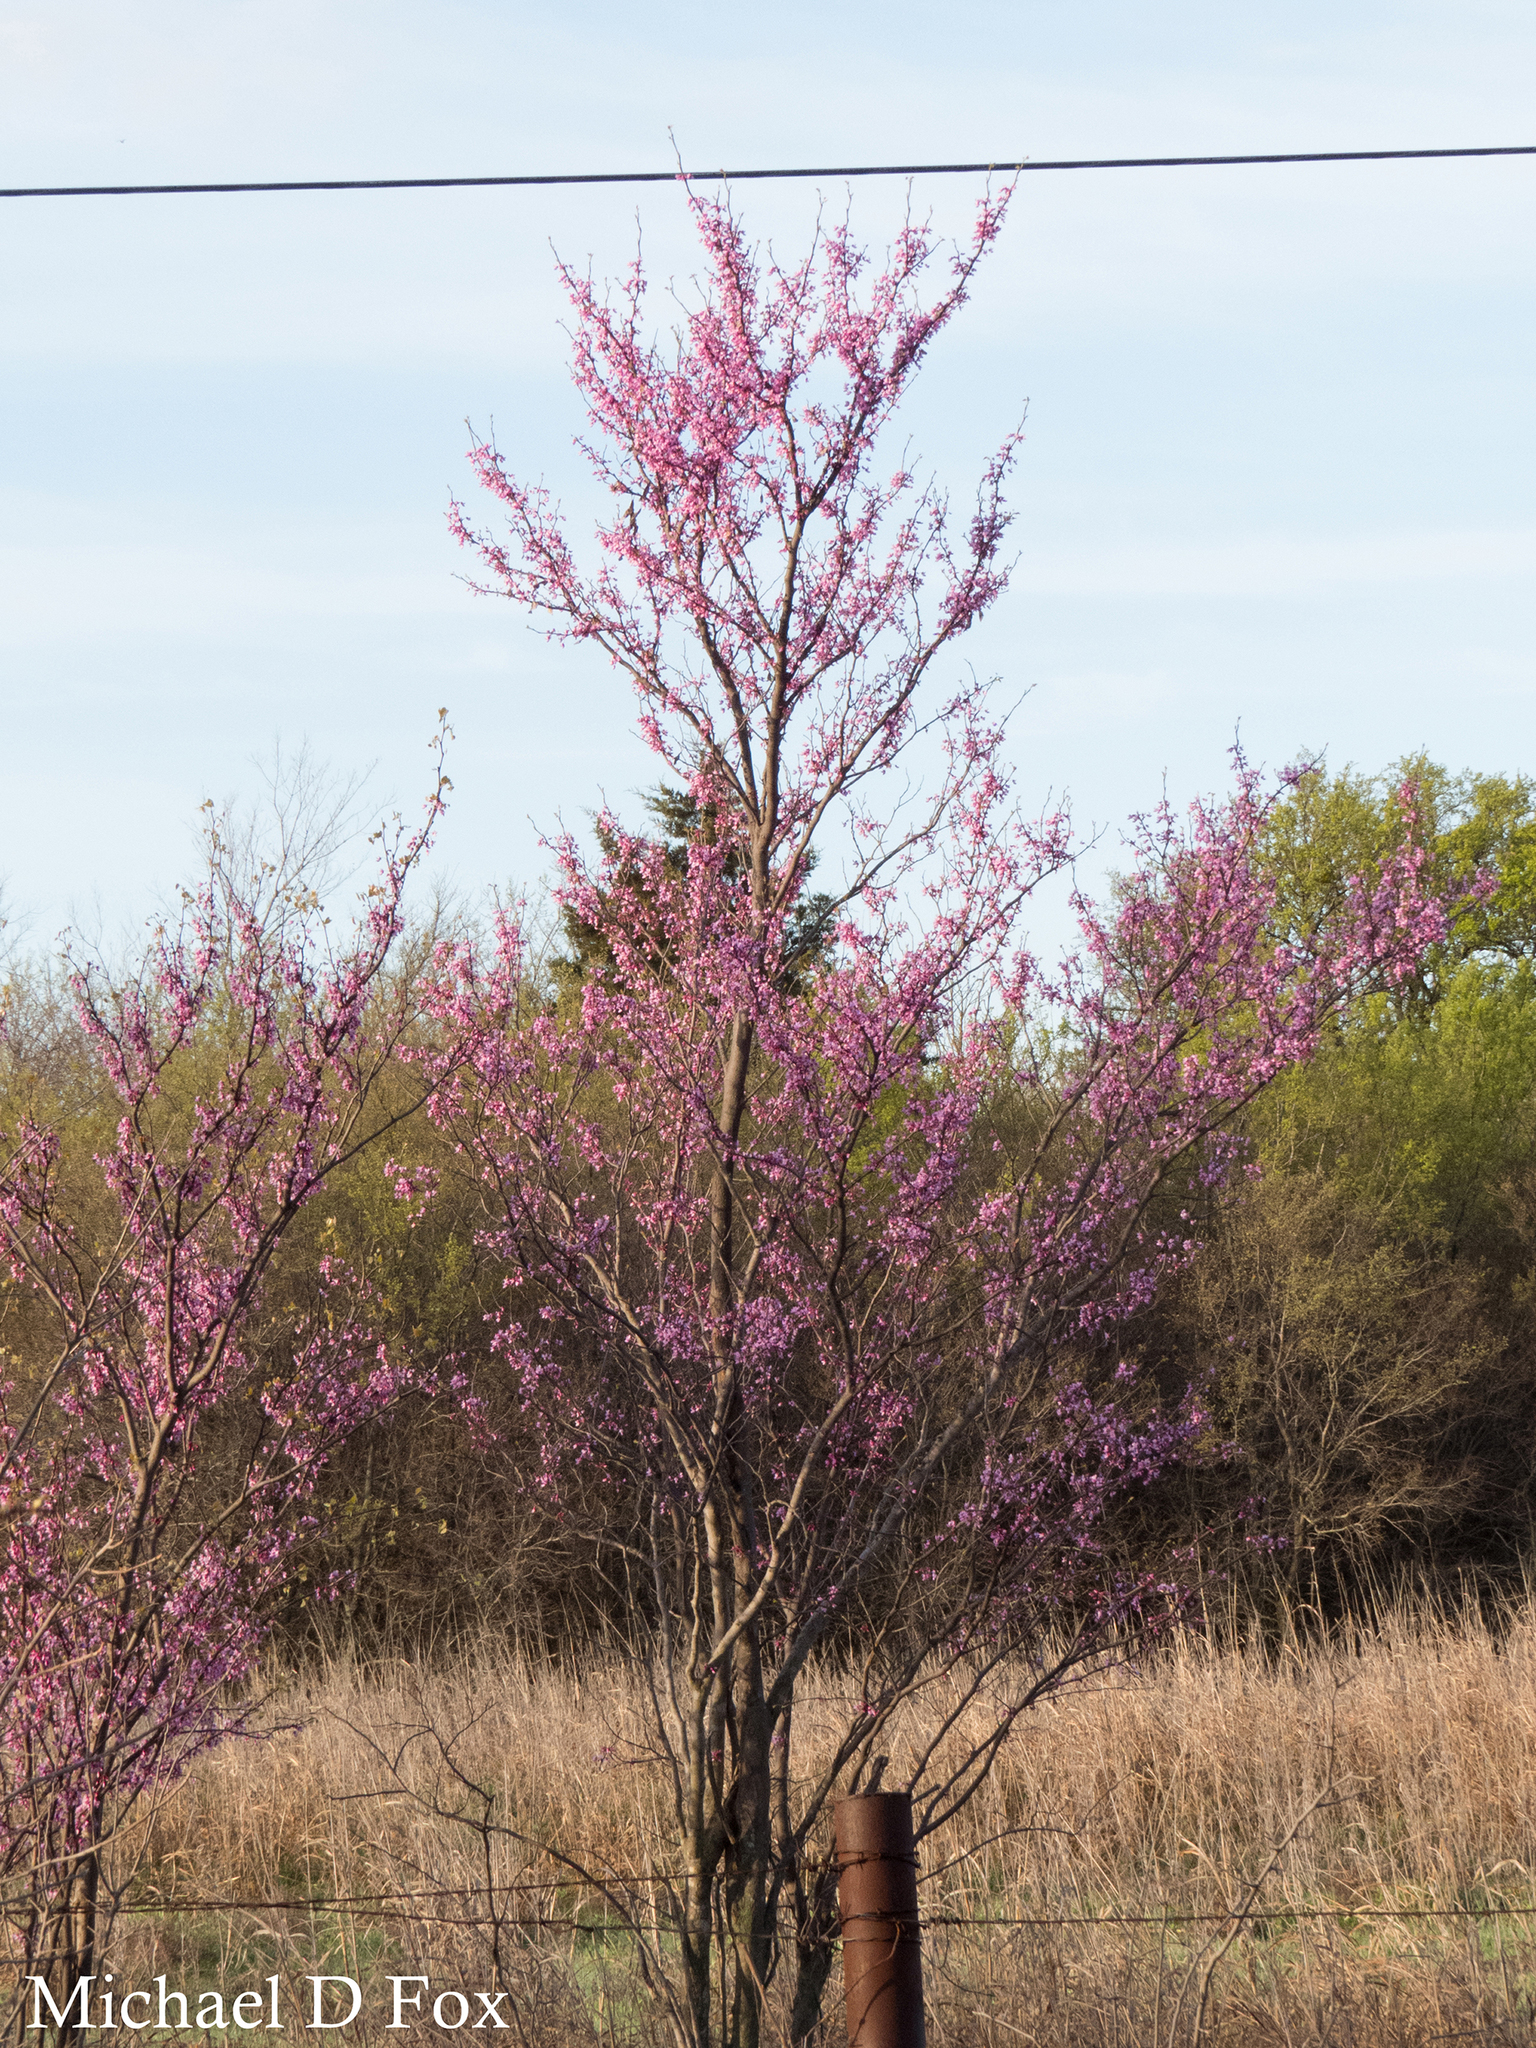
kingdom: Plantae
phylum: Tracheophyta
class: Magnoliopsida
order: Fabales
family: Fabaceae
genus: Cercis
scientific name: Cercis canadensis
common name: Eastern redbud
